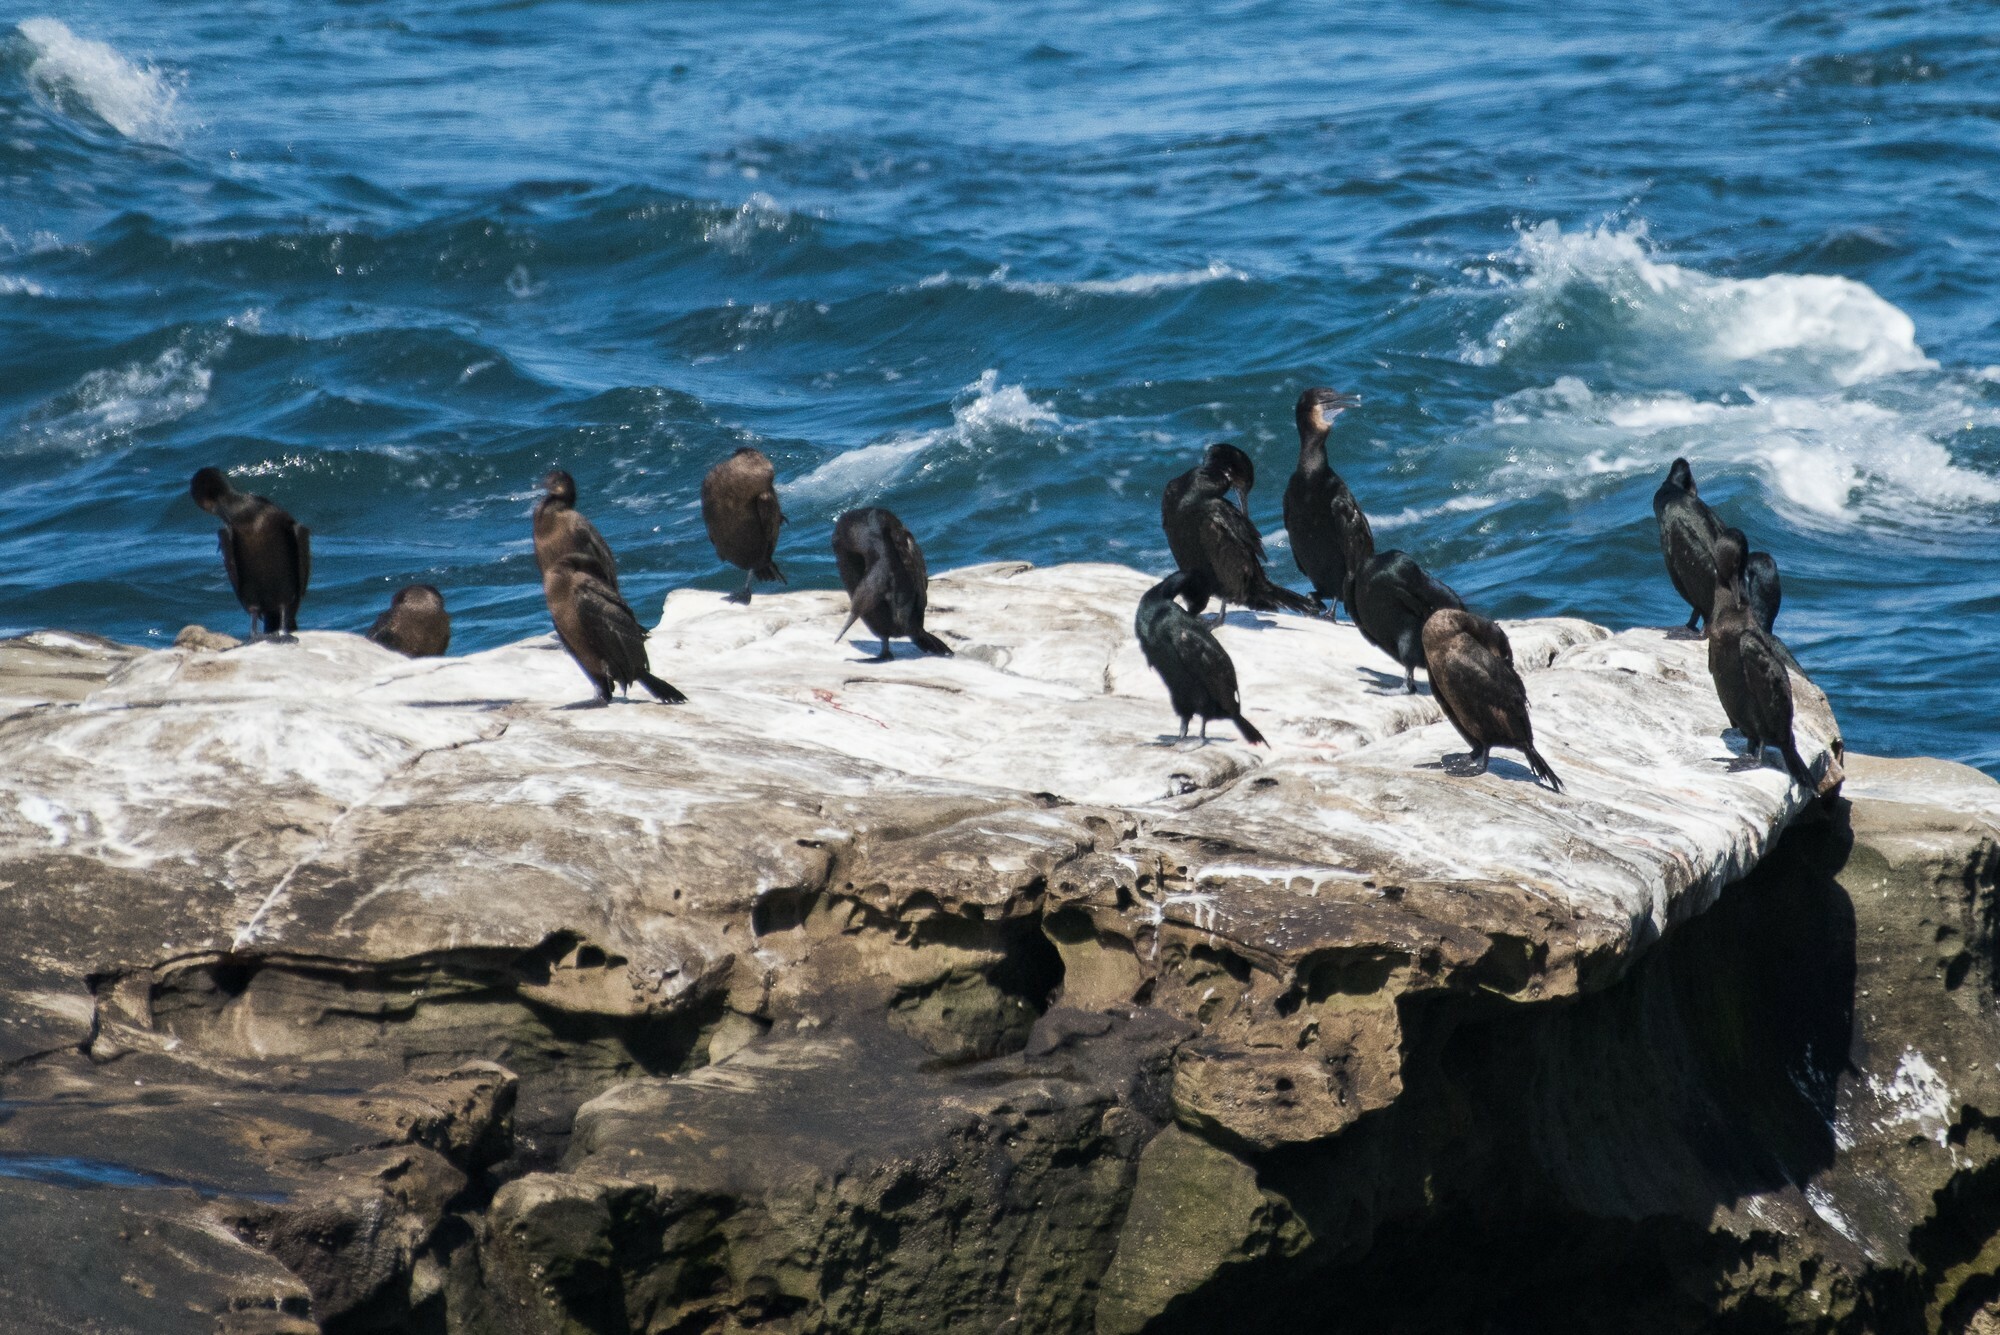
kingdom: Animalia
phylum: Chordata
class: Aves
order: Suliformes
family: Phalacrocoracidae
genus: Urile
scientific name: Urile penicillatus
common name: Brandt's cormorant
